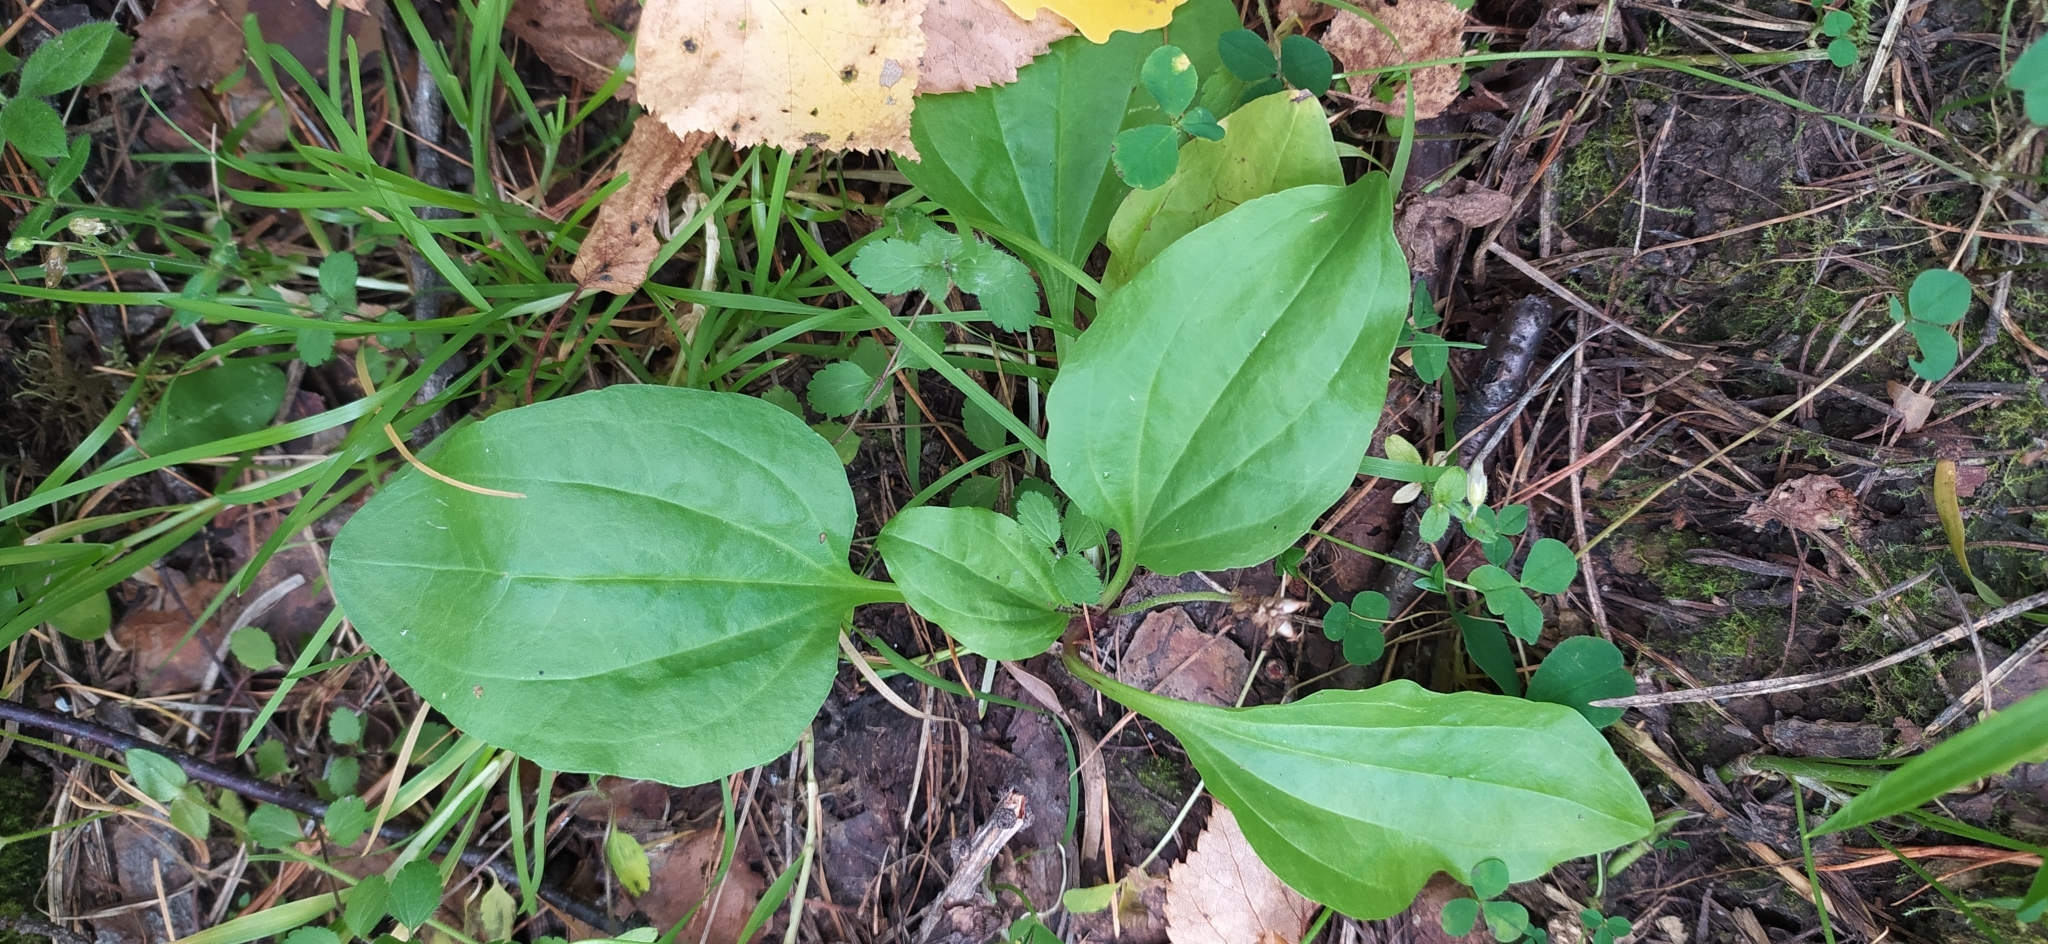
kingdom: Plantae
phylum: Tracheophyta
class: Magnoliopsida
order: Lamiales
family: Plantaginaceae
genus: Plantago
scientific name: Plantago major
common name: Common plantain
